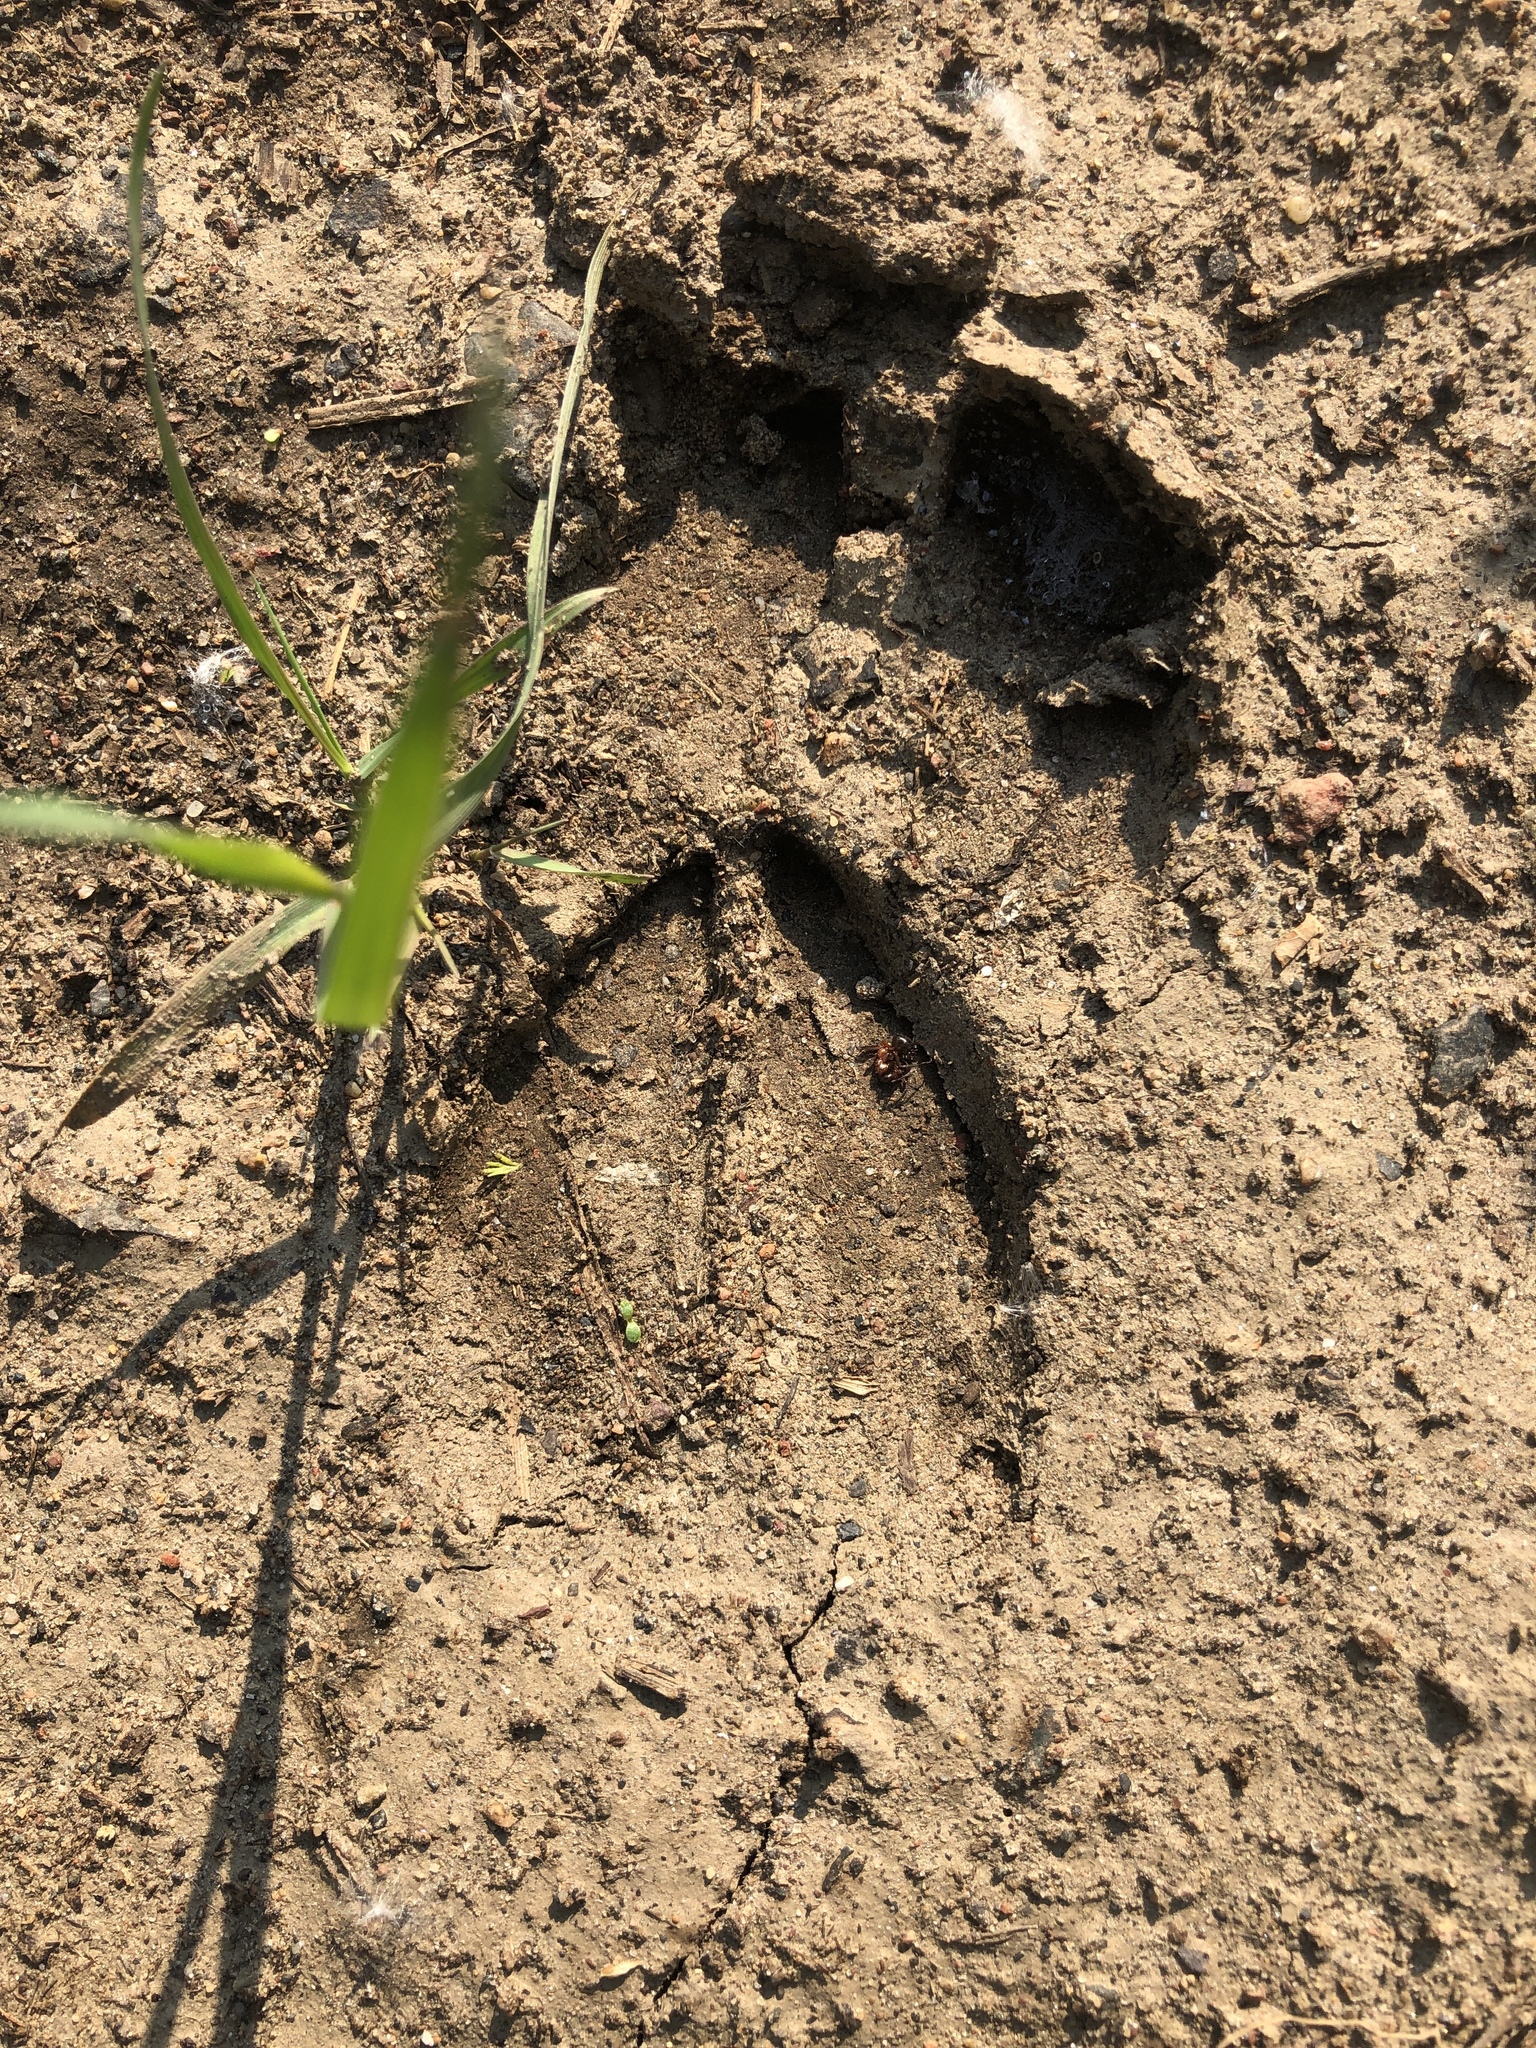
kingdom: Animalia
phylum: Chordata
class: Mammalia
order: Artiodactyla
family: Cervidae
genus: Odocoileus
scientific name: Odocoileus virginianus
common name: White-tailed deer
